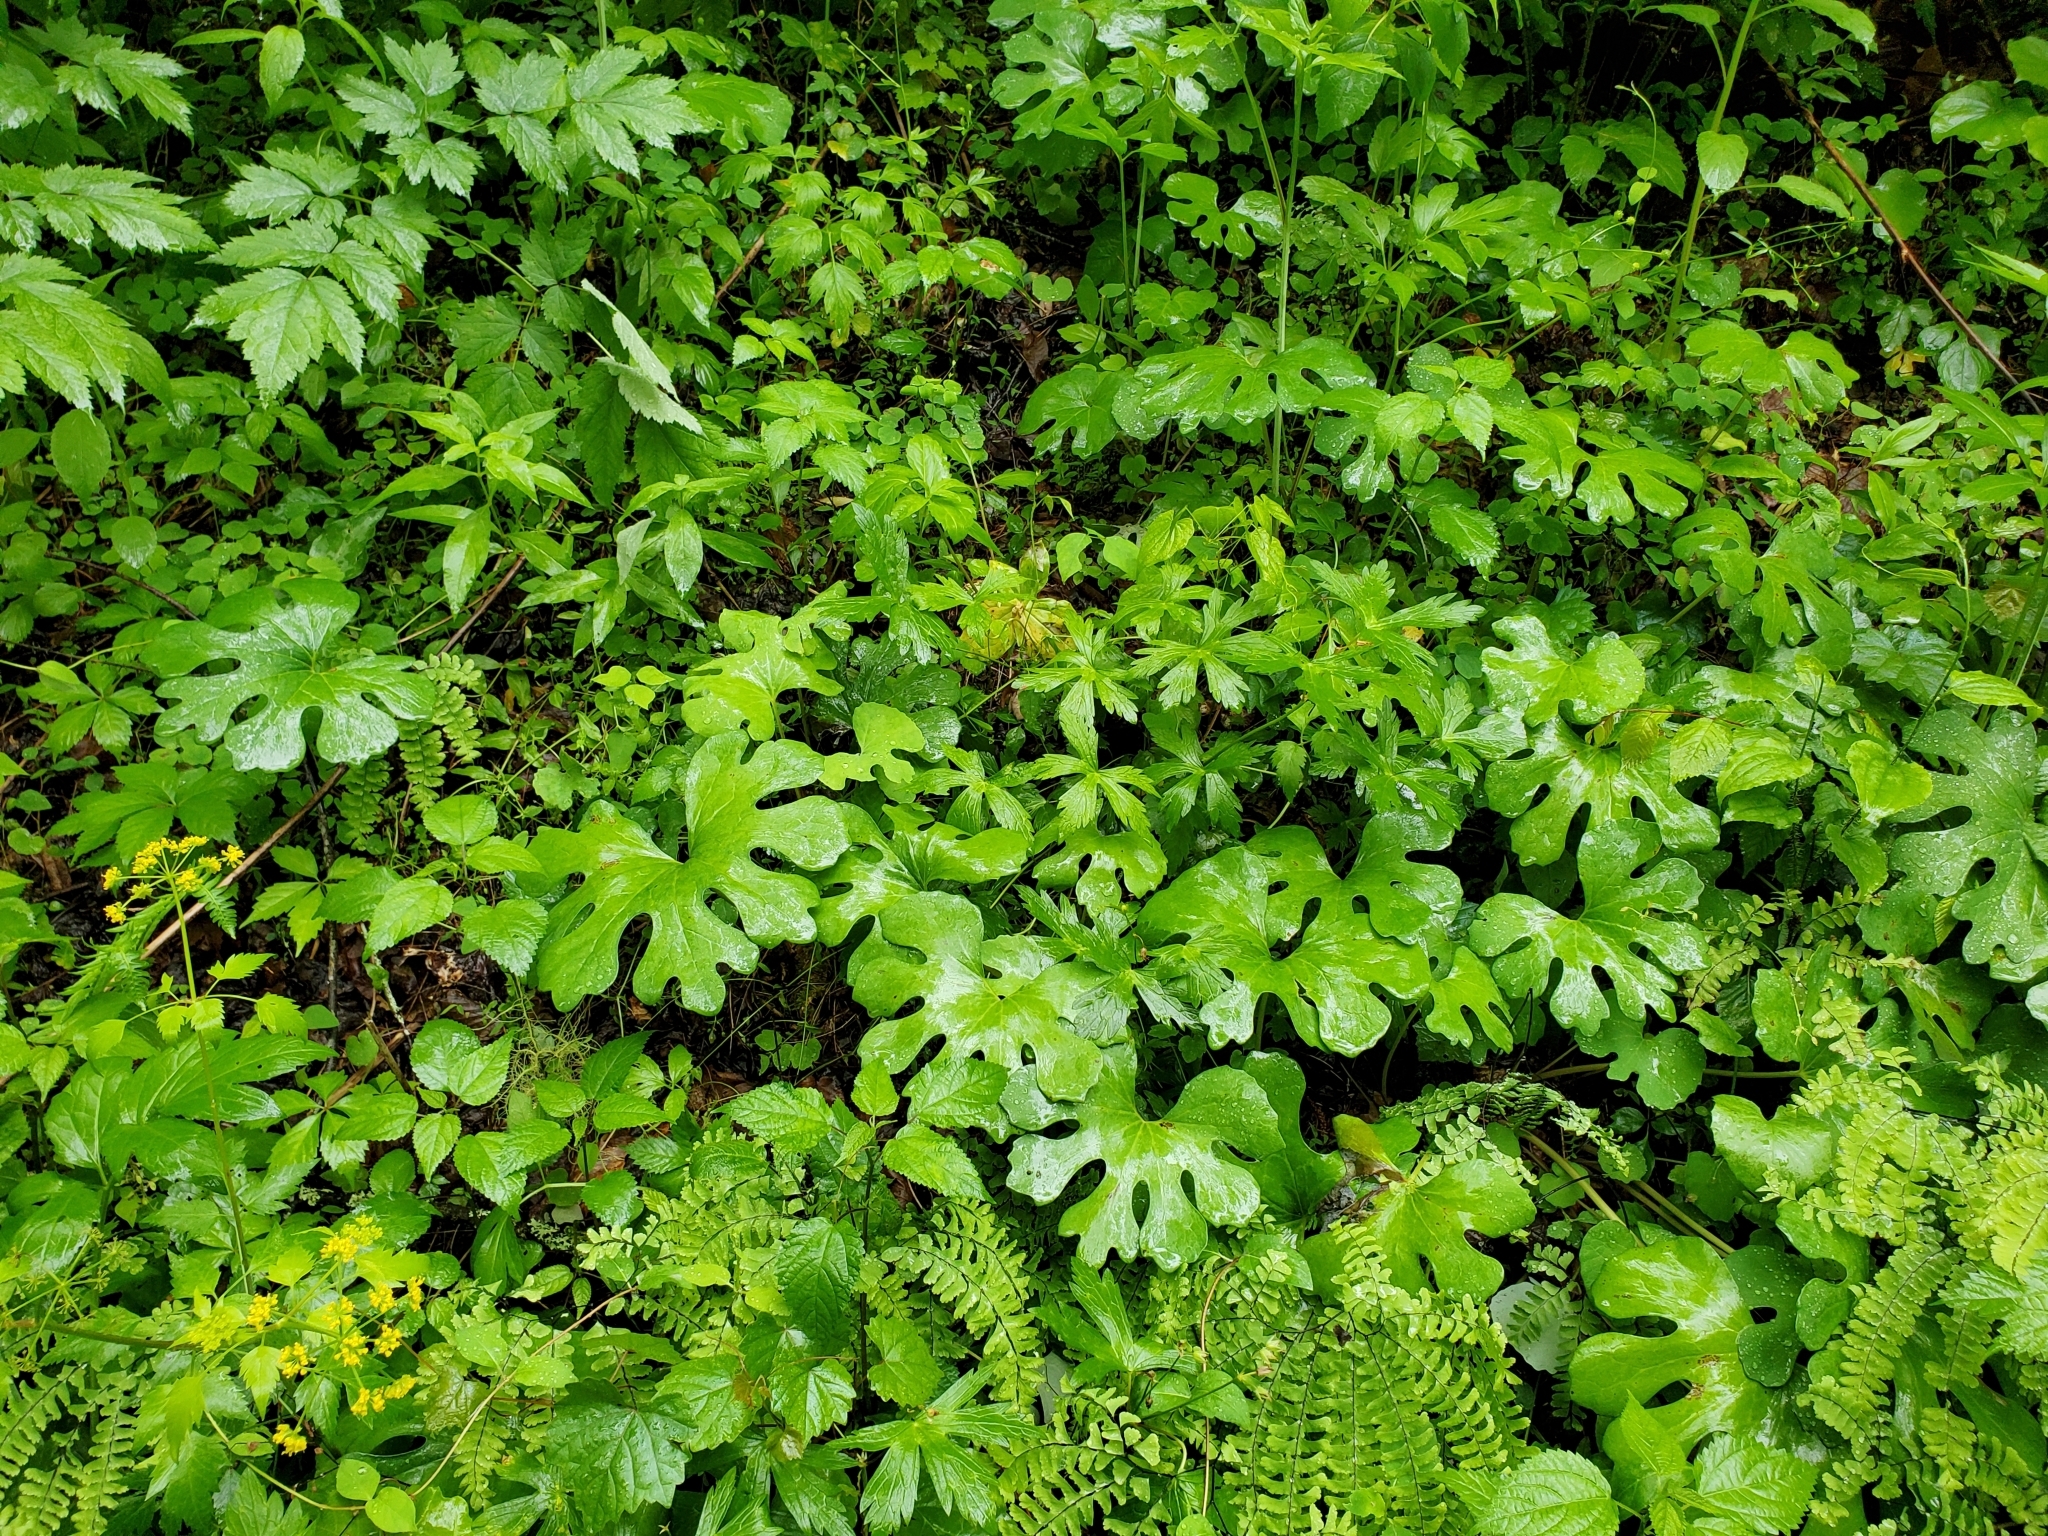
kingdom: Plantae
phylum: Tracheophyta
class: Magnoliopsida
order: Ranunculales
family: Papaveraceae
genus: Sanguinaria
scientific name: Sanguinaria canadensis
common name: Bloodroot
